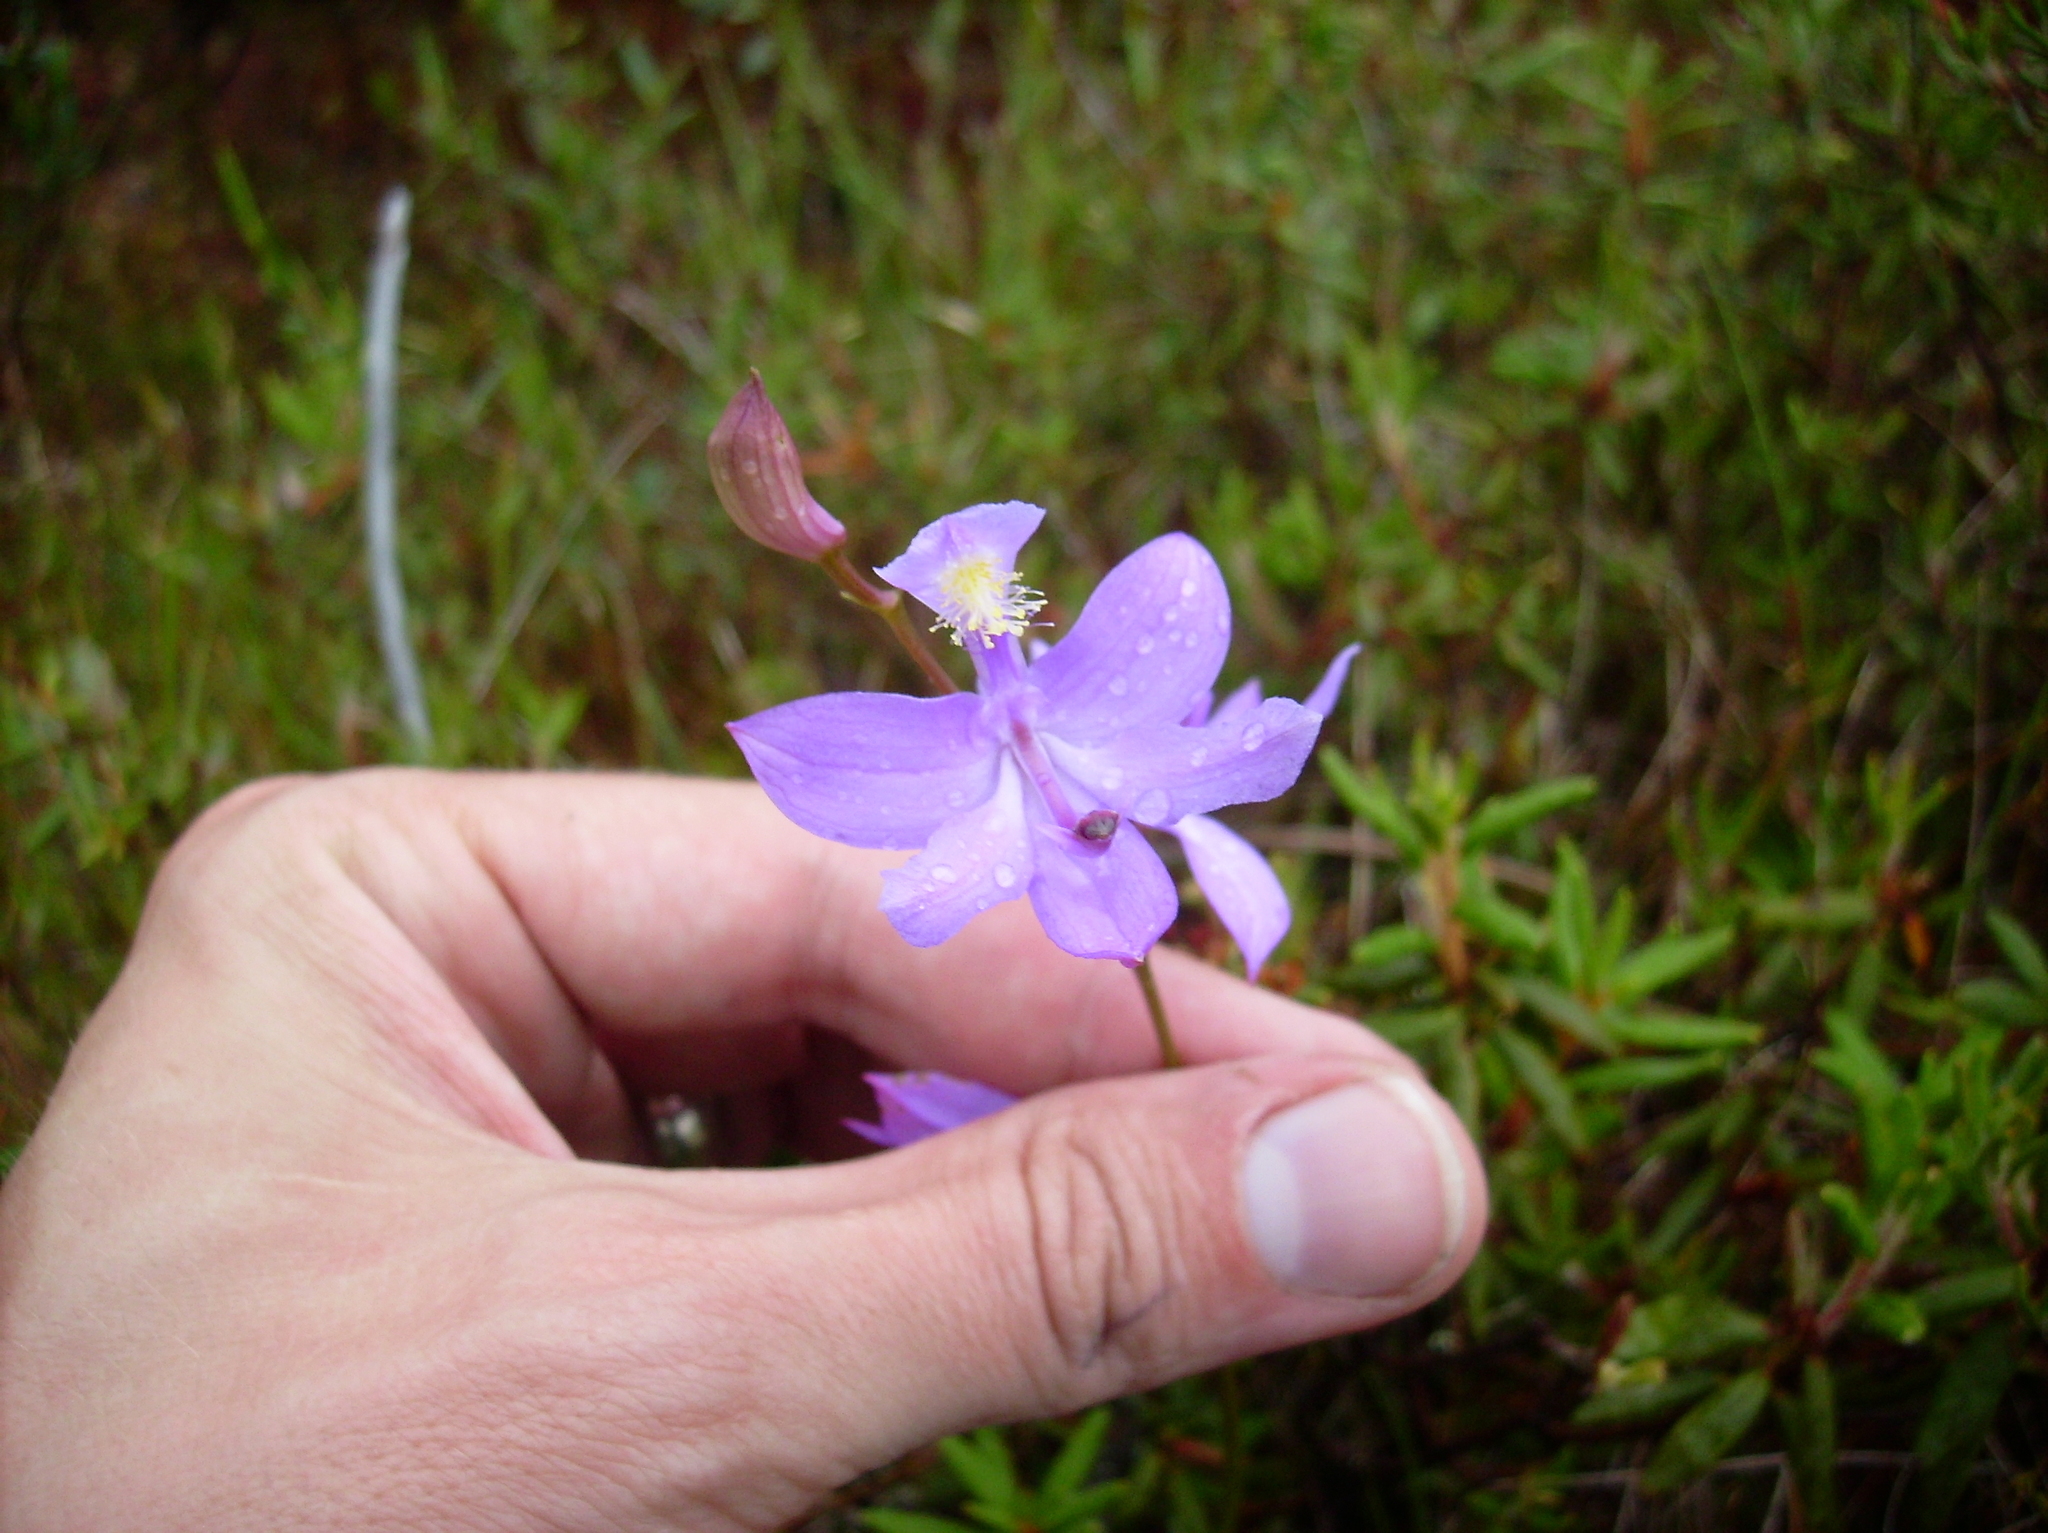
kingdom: Plantae
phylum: Tracheophyta
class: Liliopsida
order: Asparagales
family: Orchidaceae
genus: Calopogon
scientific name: Calopogon tuberosus
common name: Grass-pink
